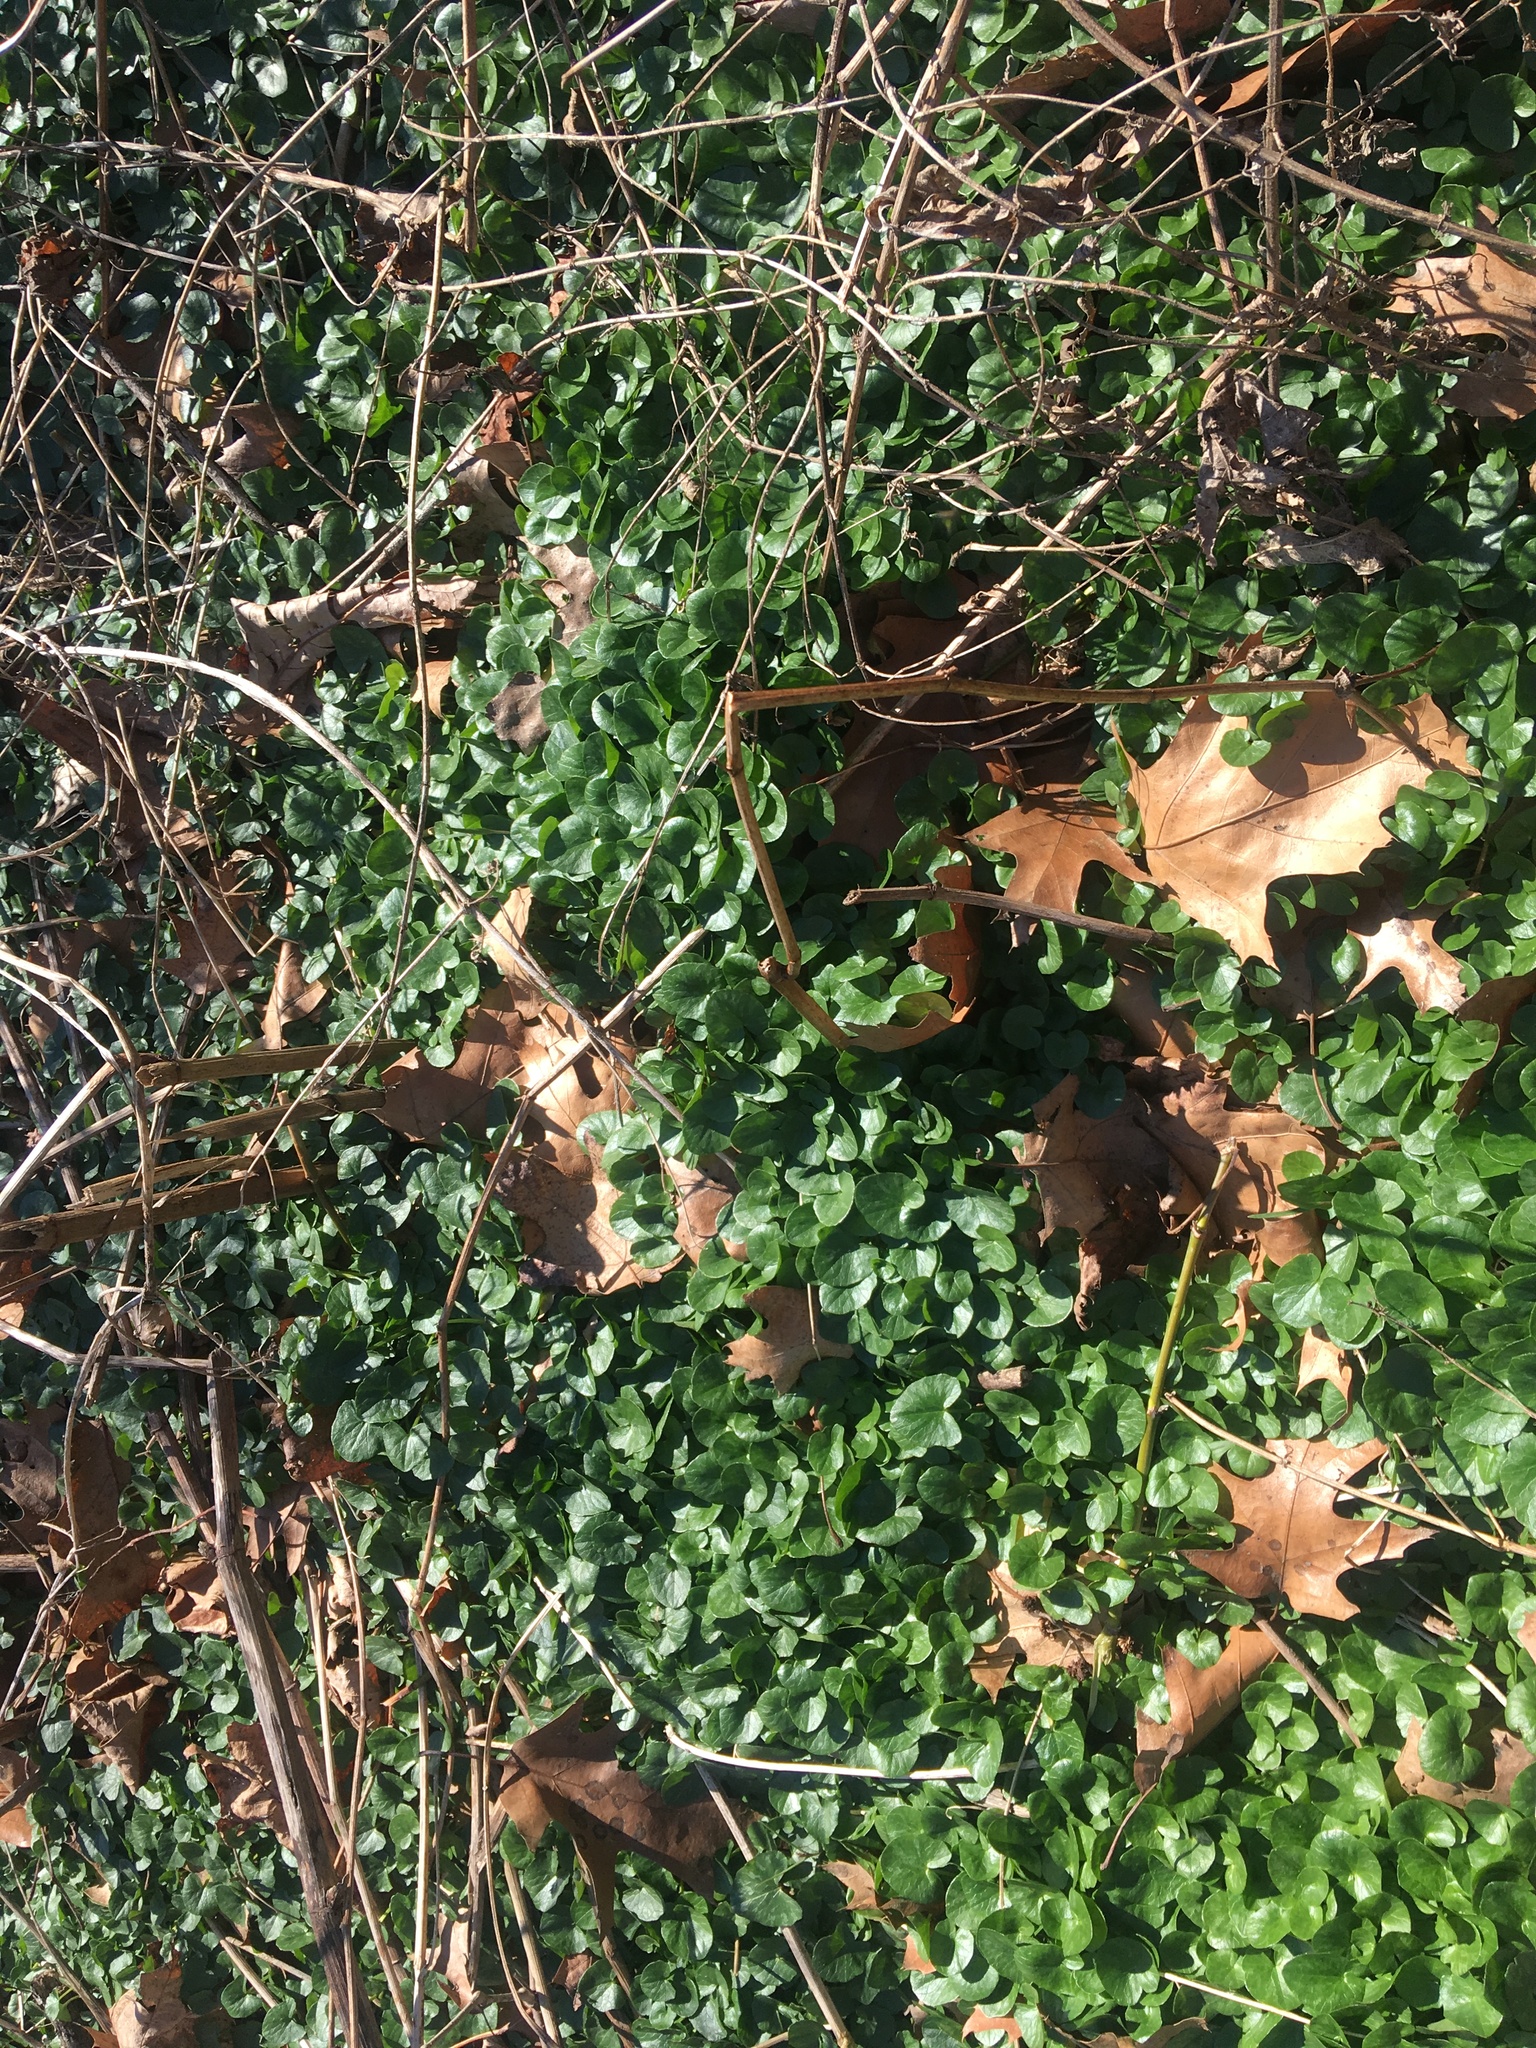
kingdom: Plantae
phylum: Tracheophyta
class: Magnoliopsida
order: Ranunculales
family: Ranunculaceae
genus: Ficaria
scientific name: Ficaria verna
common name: Lesser celandine
